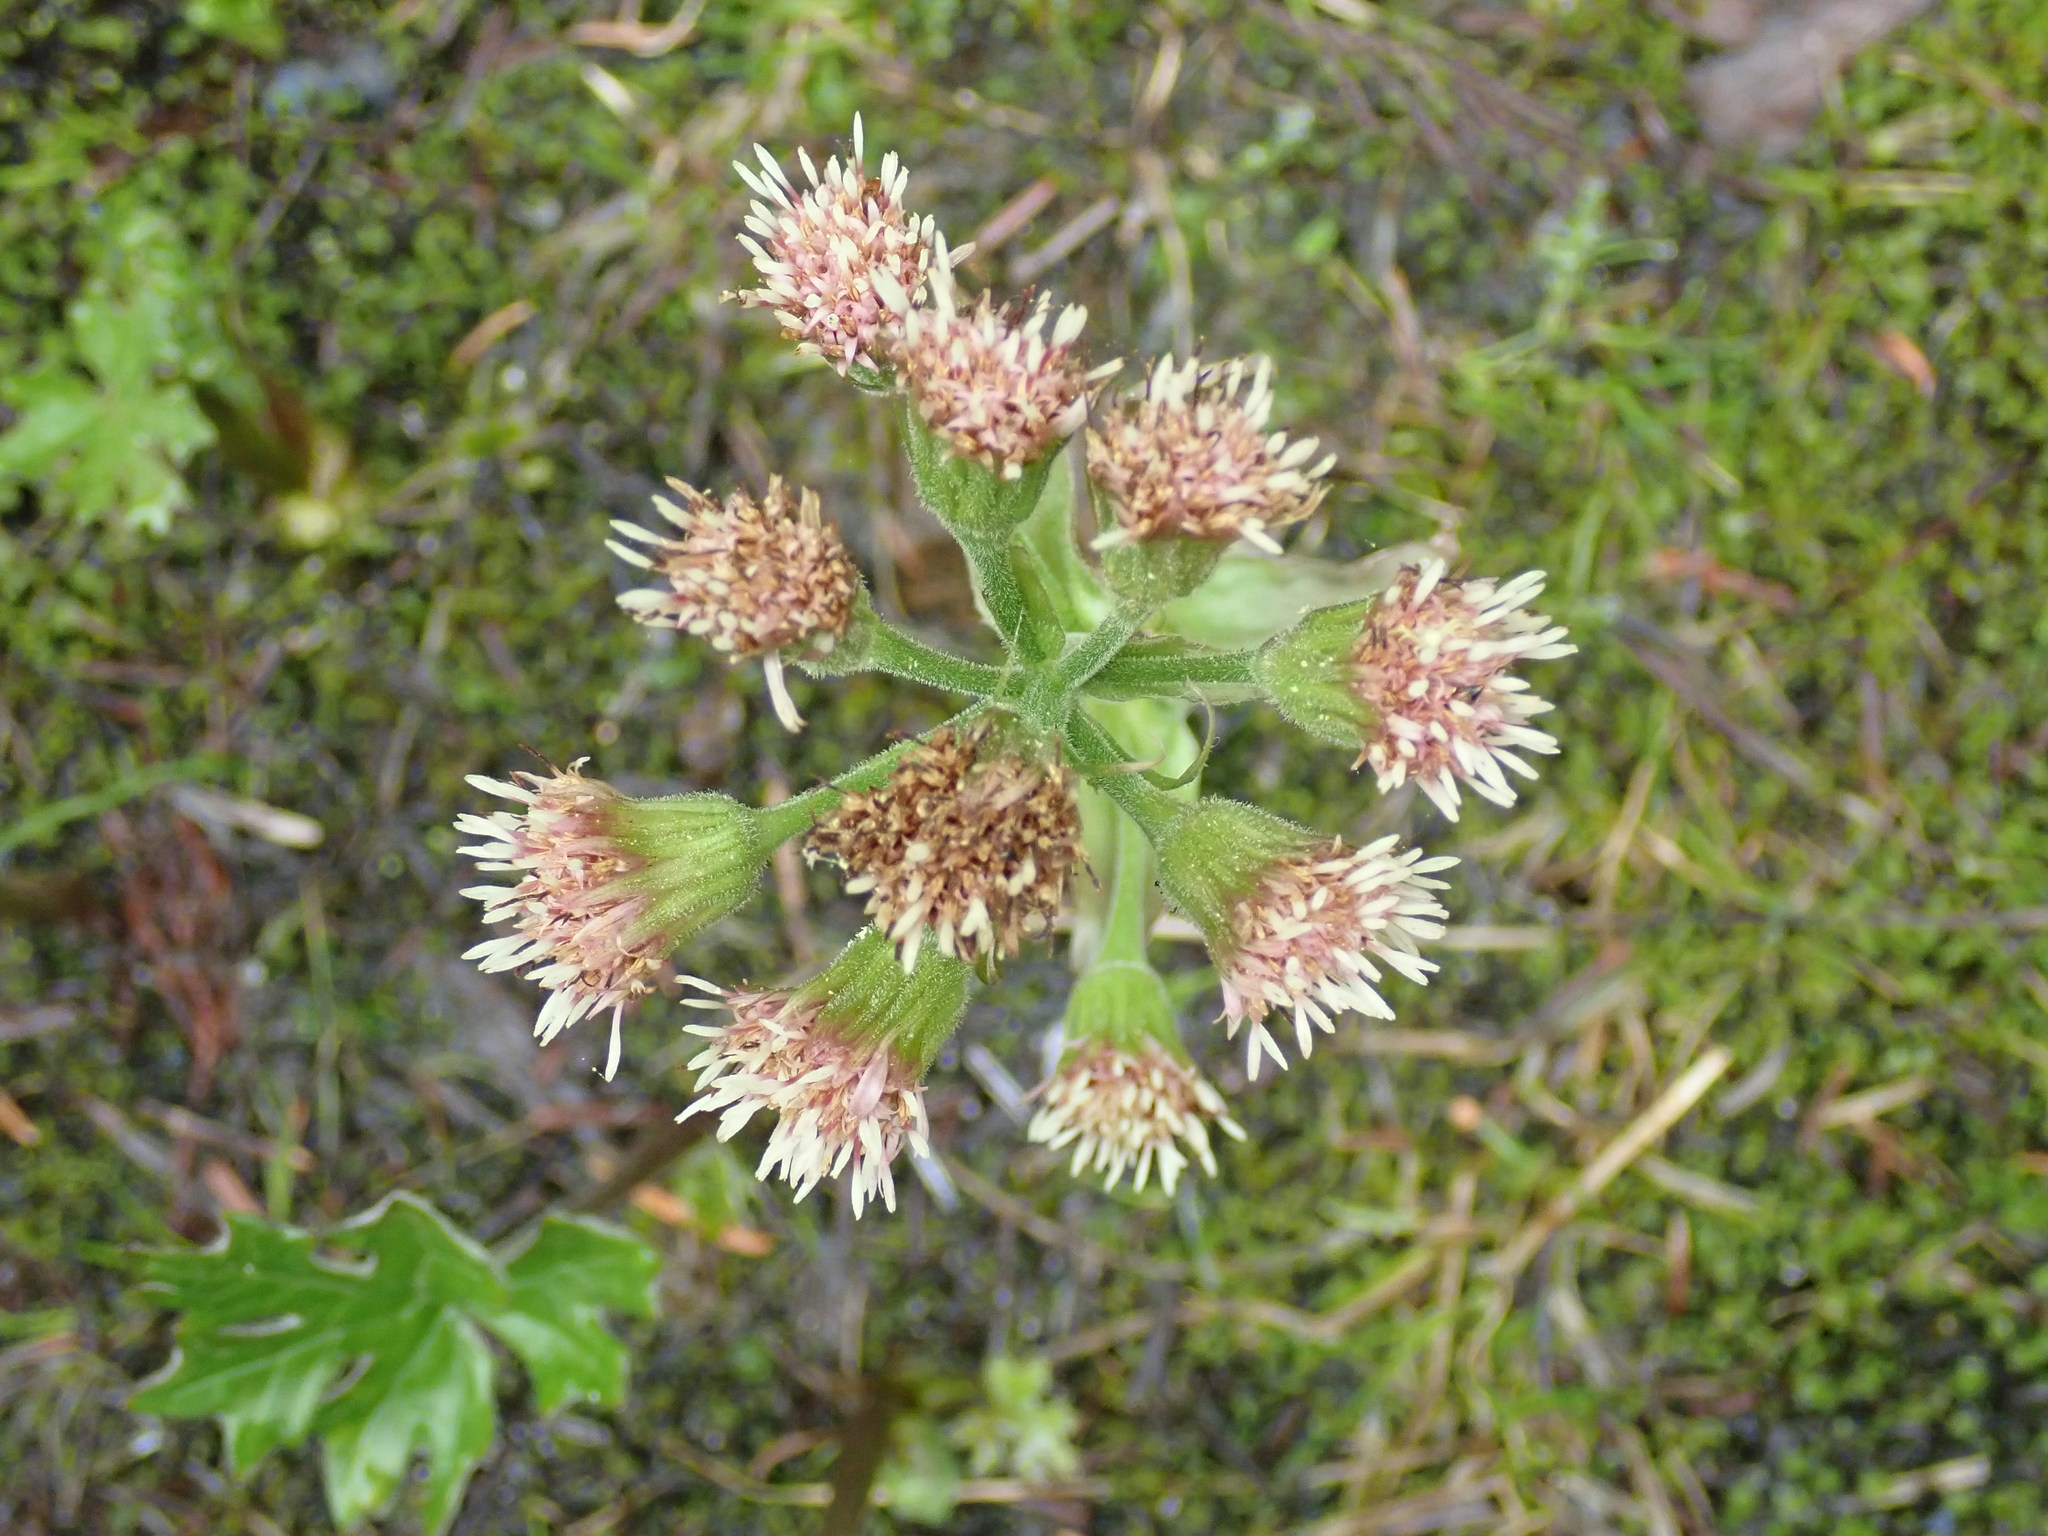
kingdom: Plantae
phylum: Tracheophyta
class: Magnoliopsida
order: Asterales
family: Asteraceae
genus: Petasites
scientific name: Petasites frigidus
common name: Arctic butterbur
